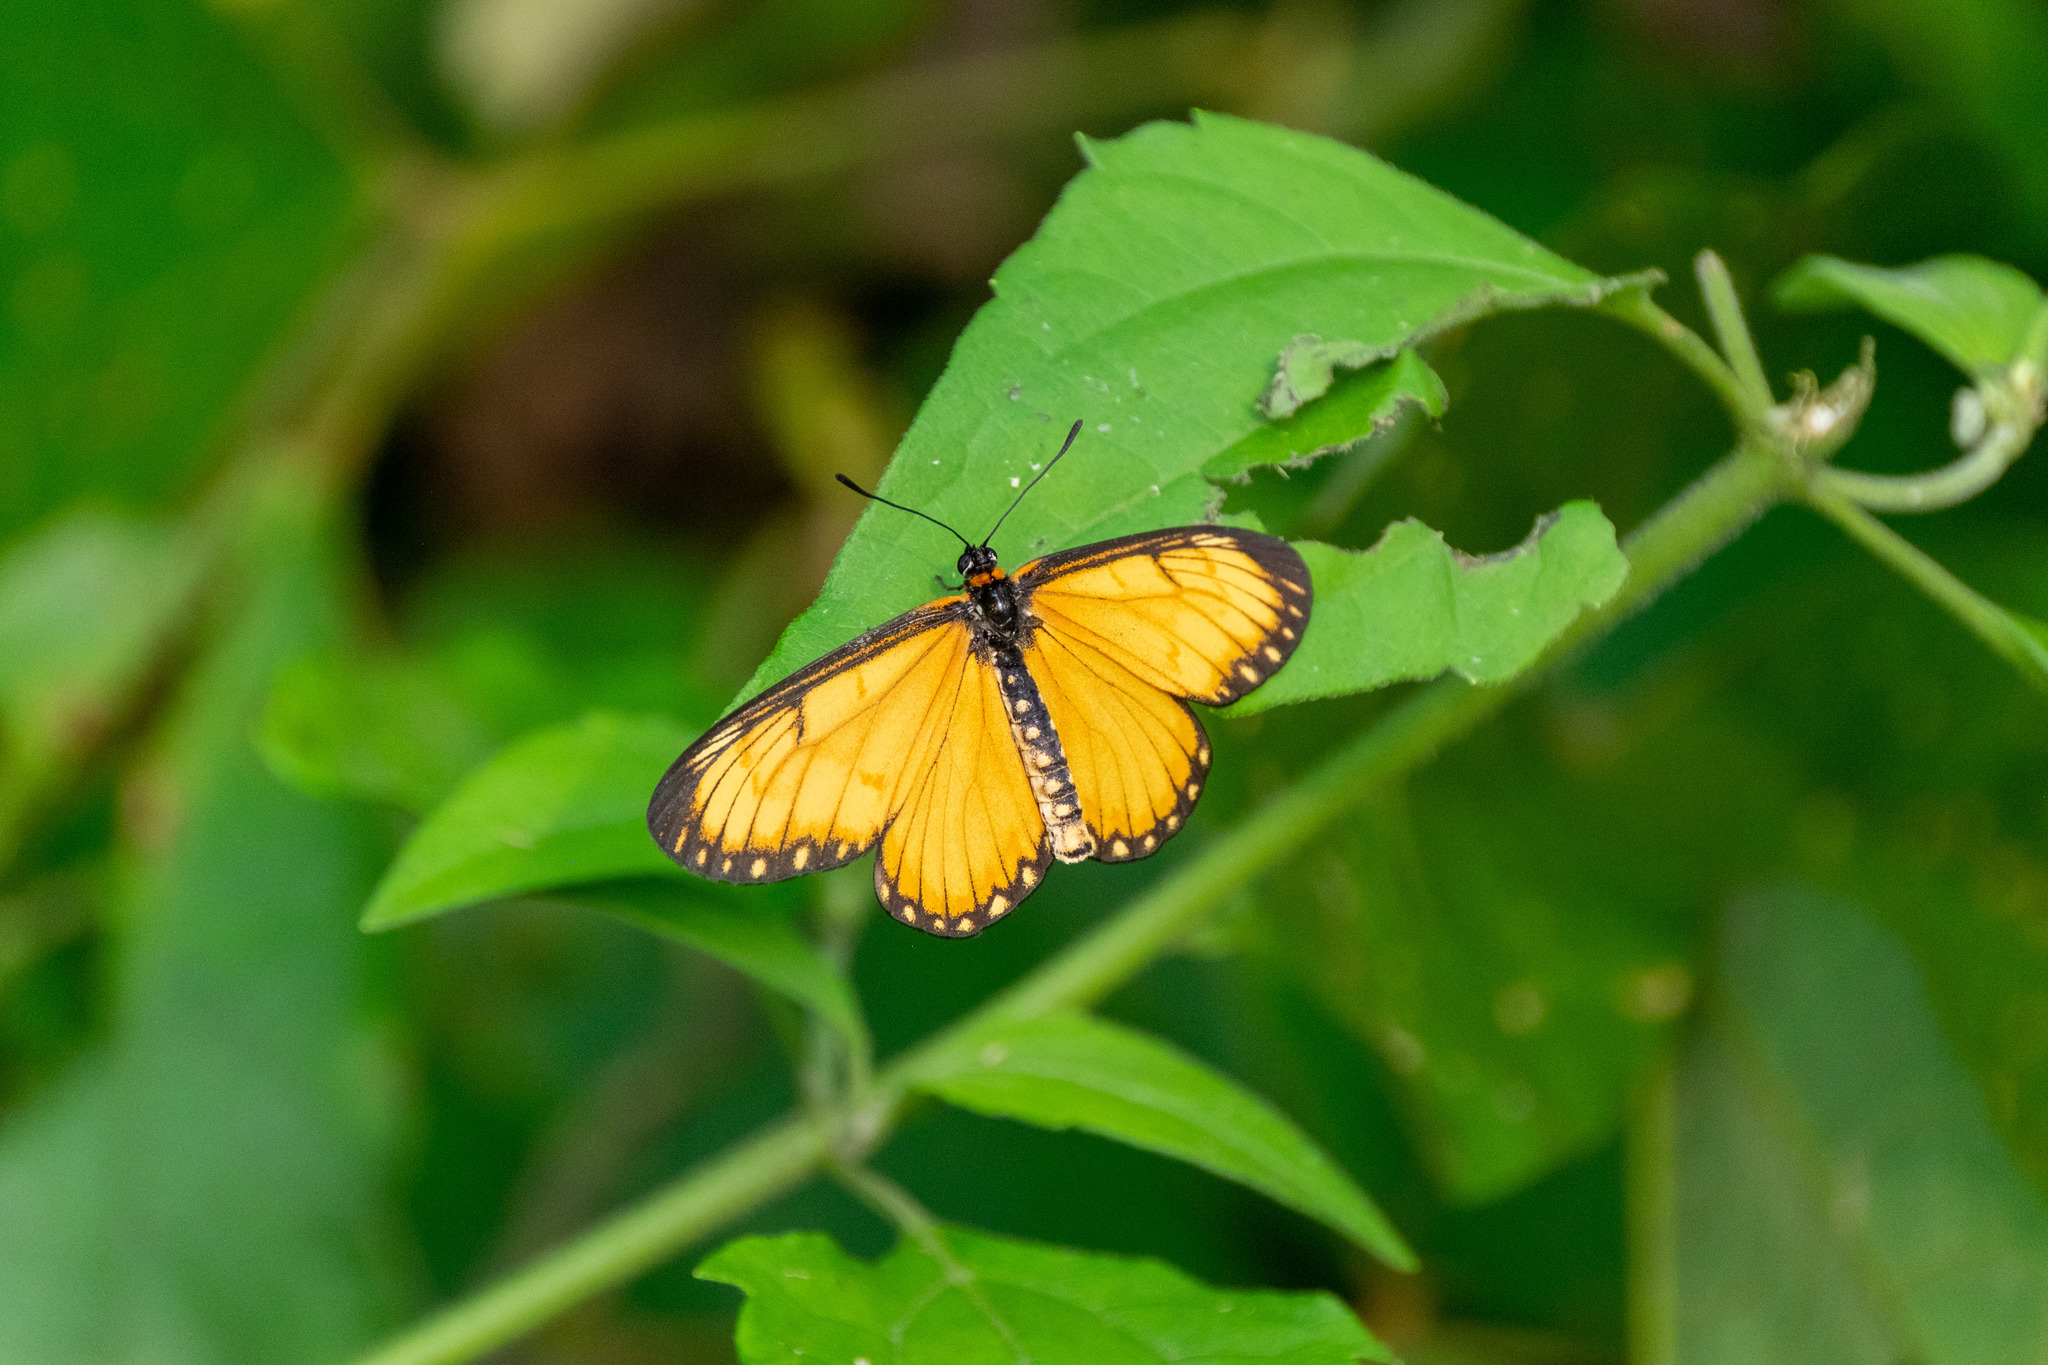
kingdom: Animalia
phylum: Arthropoda
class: Insecta
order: Lepidoptera
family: Nymphalidae
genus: Acraea
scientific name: Acraea Telchinia issoria
